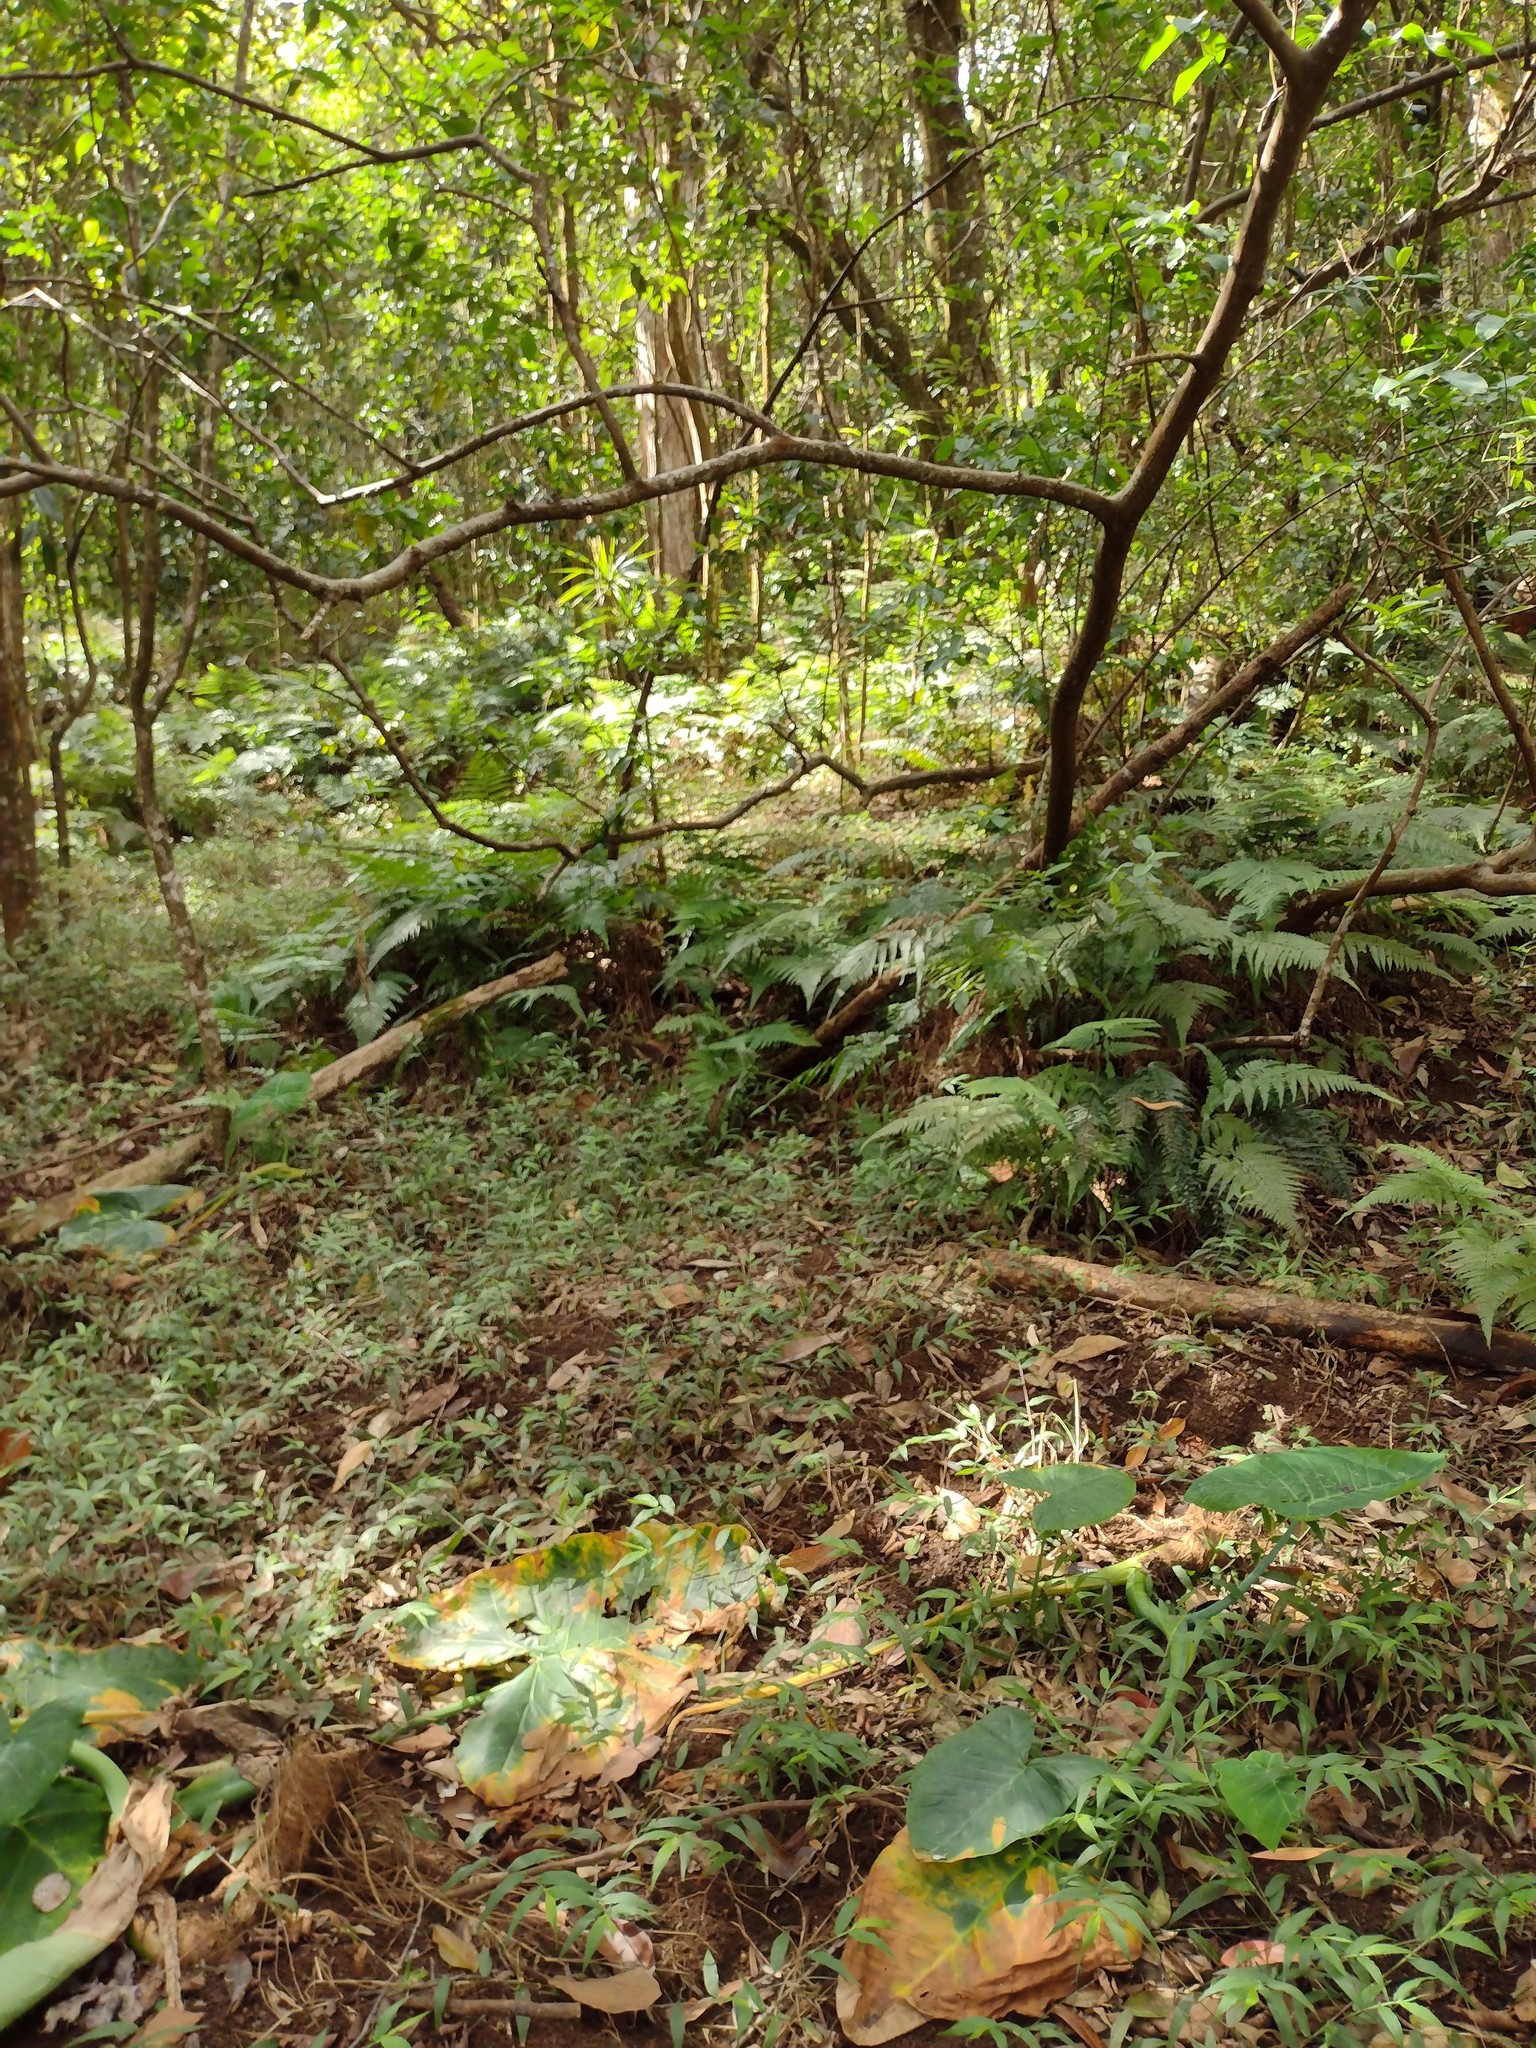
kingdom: Plantae
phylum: Tracheophyta
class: Liliopsida
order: Poales
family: Poaceae
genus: Oplismenus
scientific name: Oplismenus hirtellus
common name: Basketgrass
